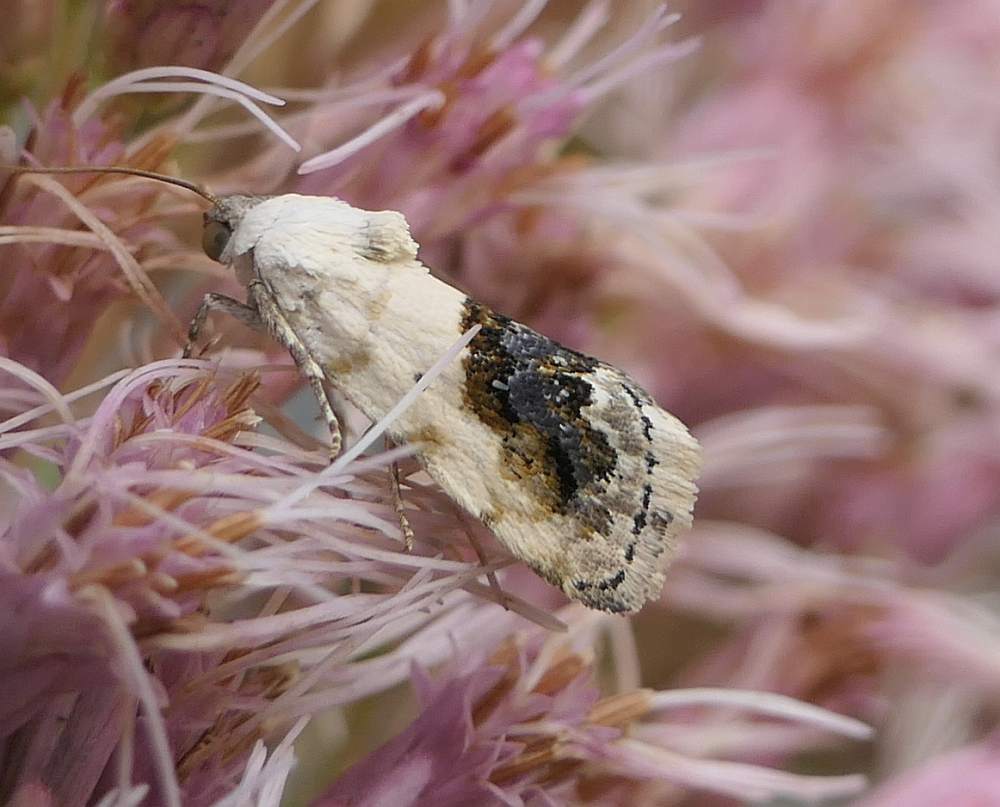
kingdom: Animalia
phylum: Arthropoda
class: Insecta
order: Lepidoptera
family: Noctuidae
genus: Acontia
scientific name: Acontia erastrioides
